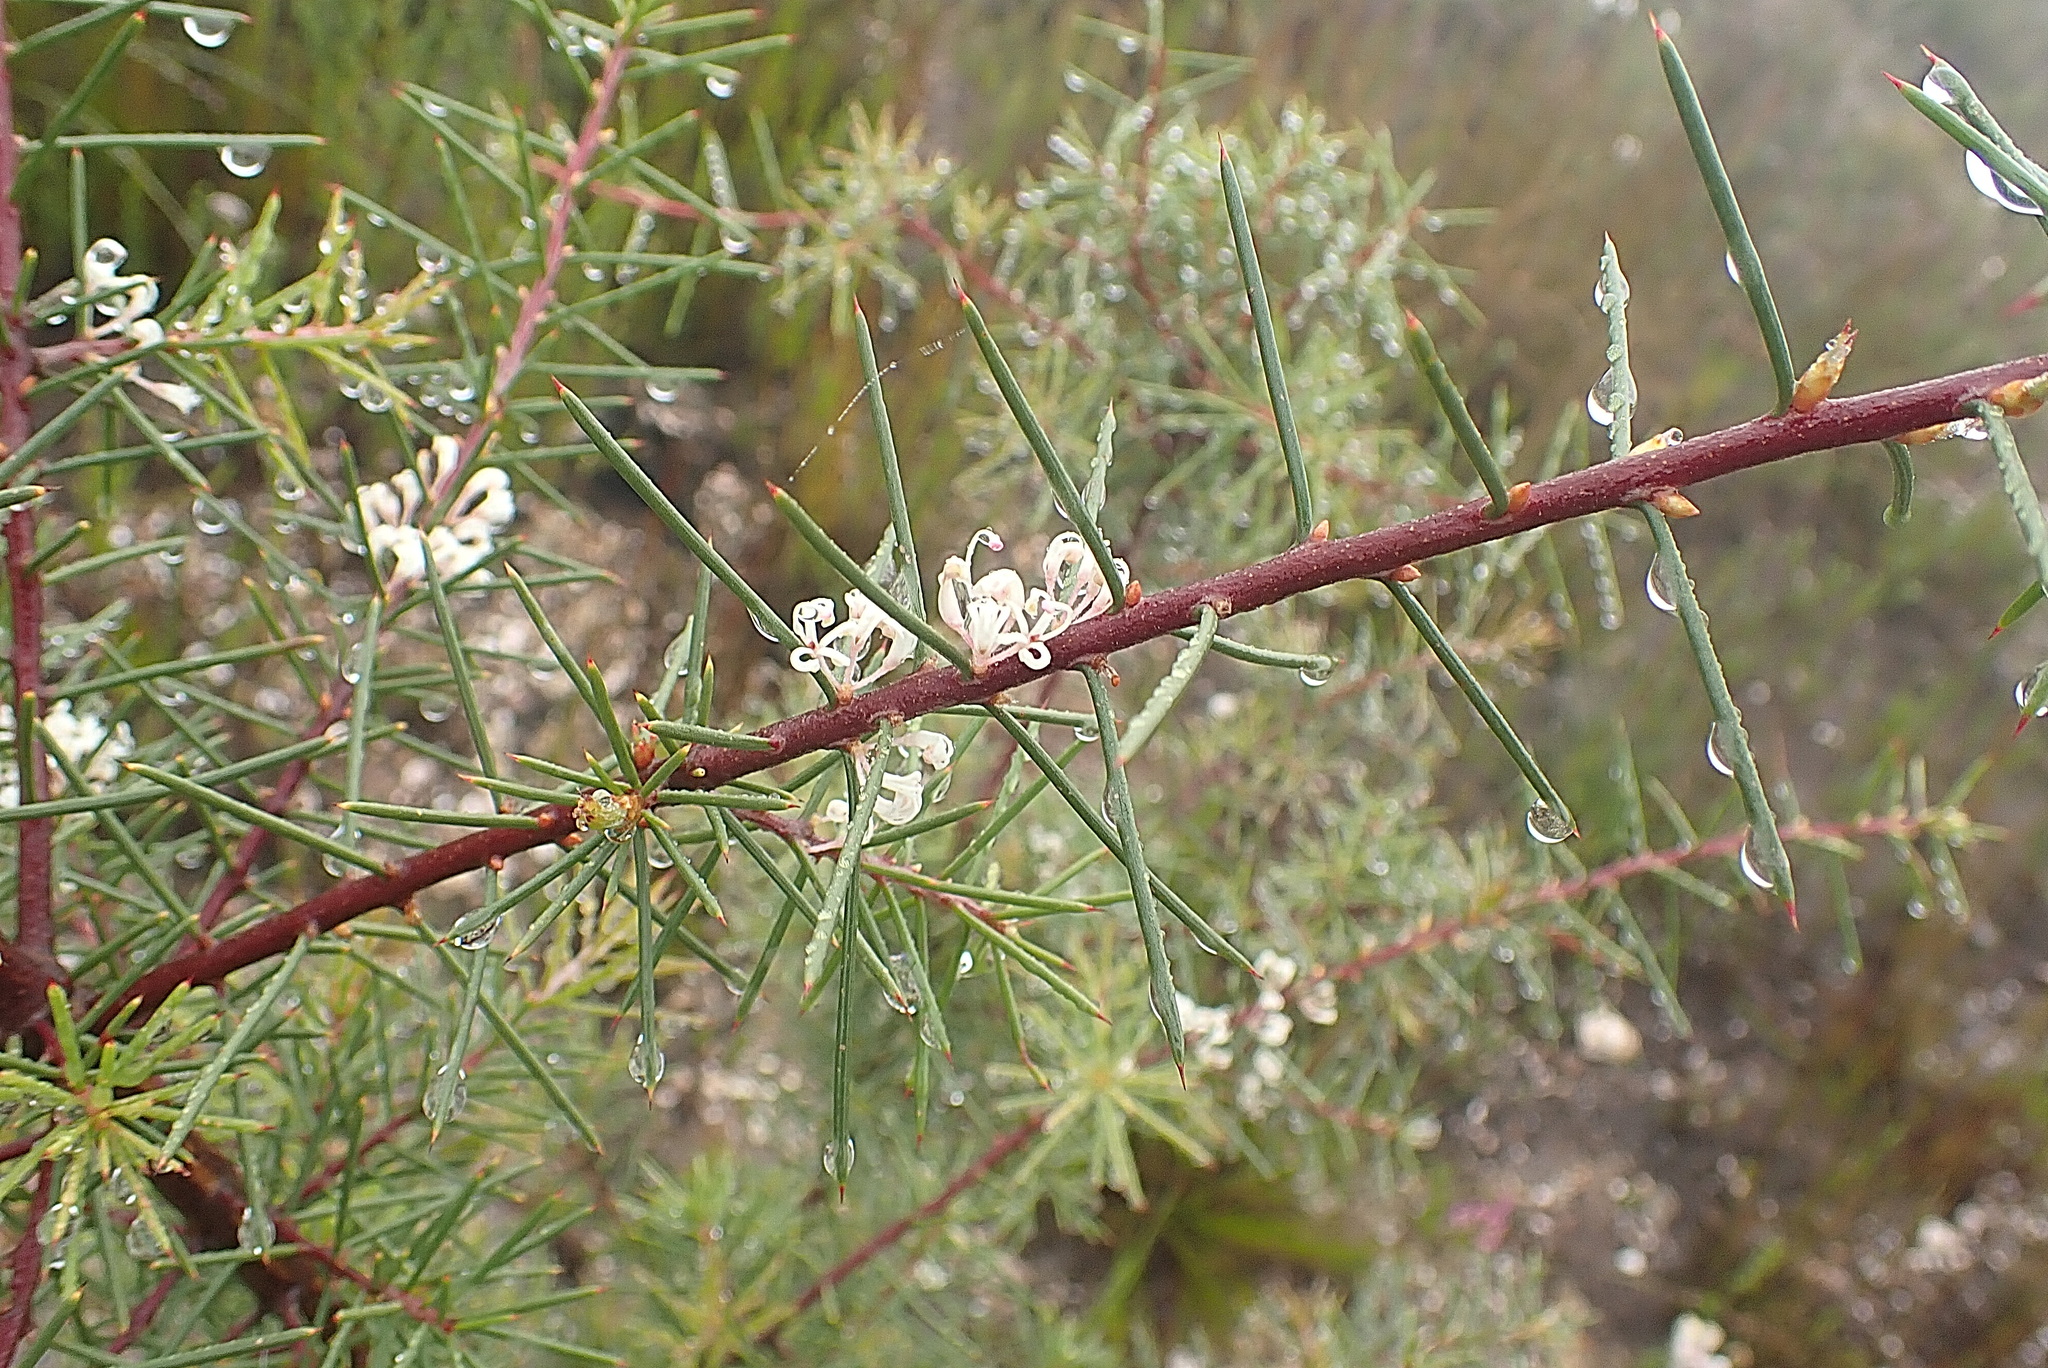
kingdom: Plantae
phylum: Tracheophyta
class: Magnoliopsida
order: Proteales
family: Proteaceae
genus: Hakea
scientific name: Hakea sericea
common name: Needle bush
